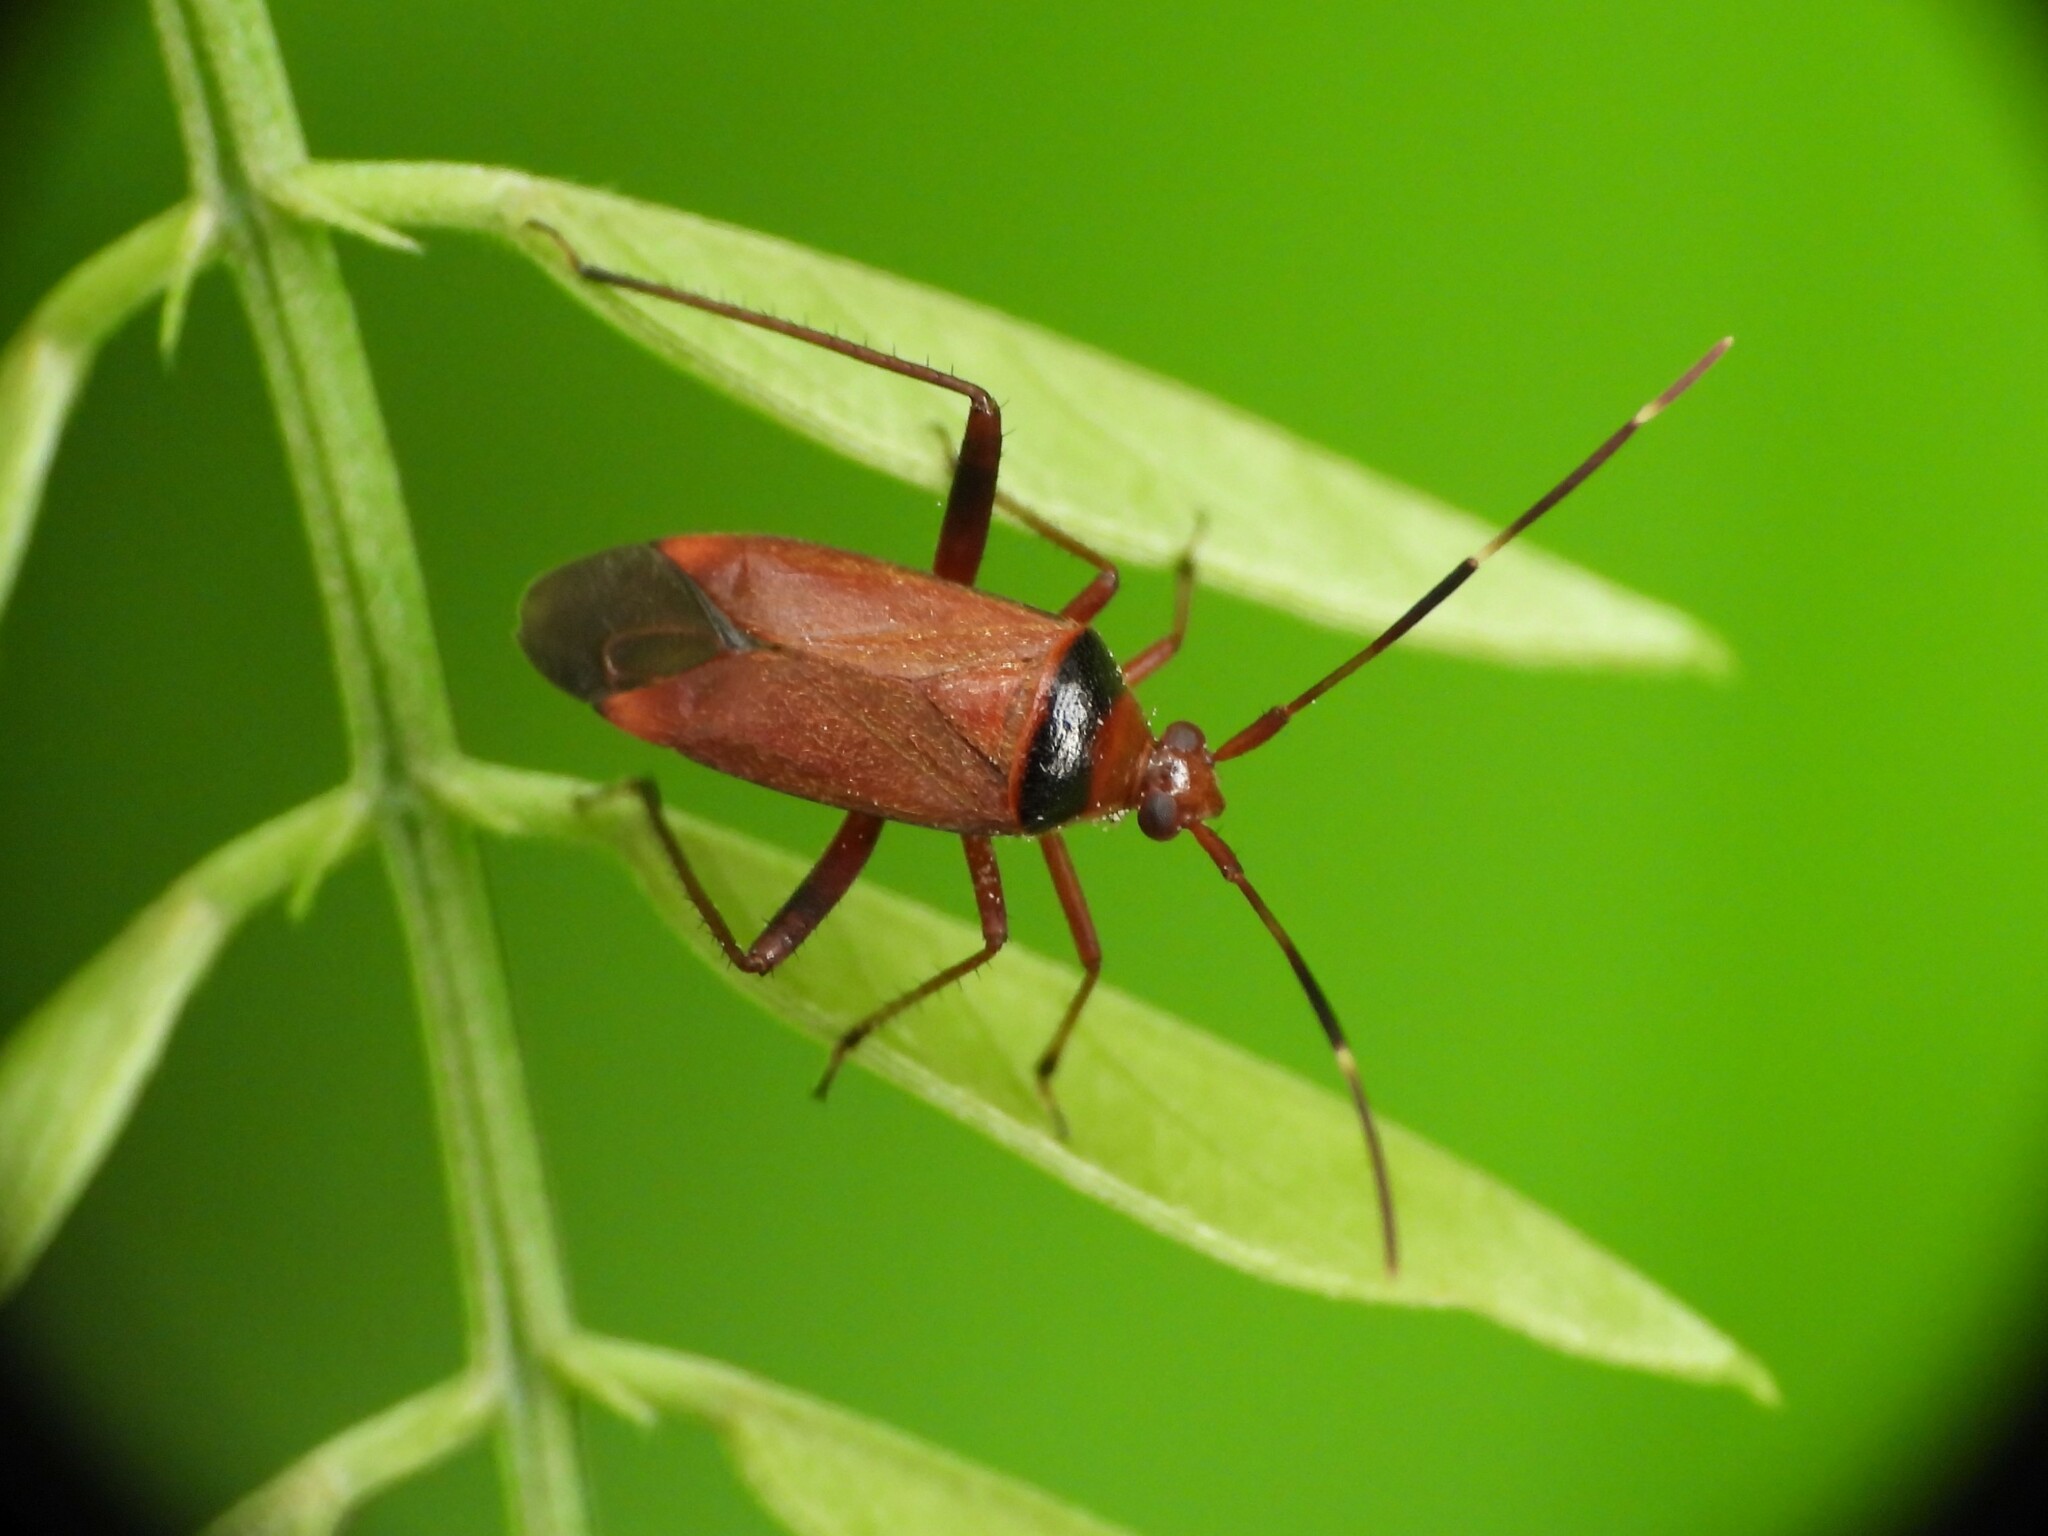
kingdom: Animalia
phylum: Arthropoda
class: Insecta
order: Hemiptera
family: Miridae
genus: Adelphocoris
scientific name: Adelphocoris vandalicus
